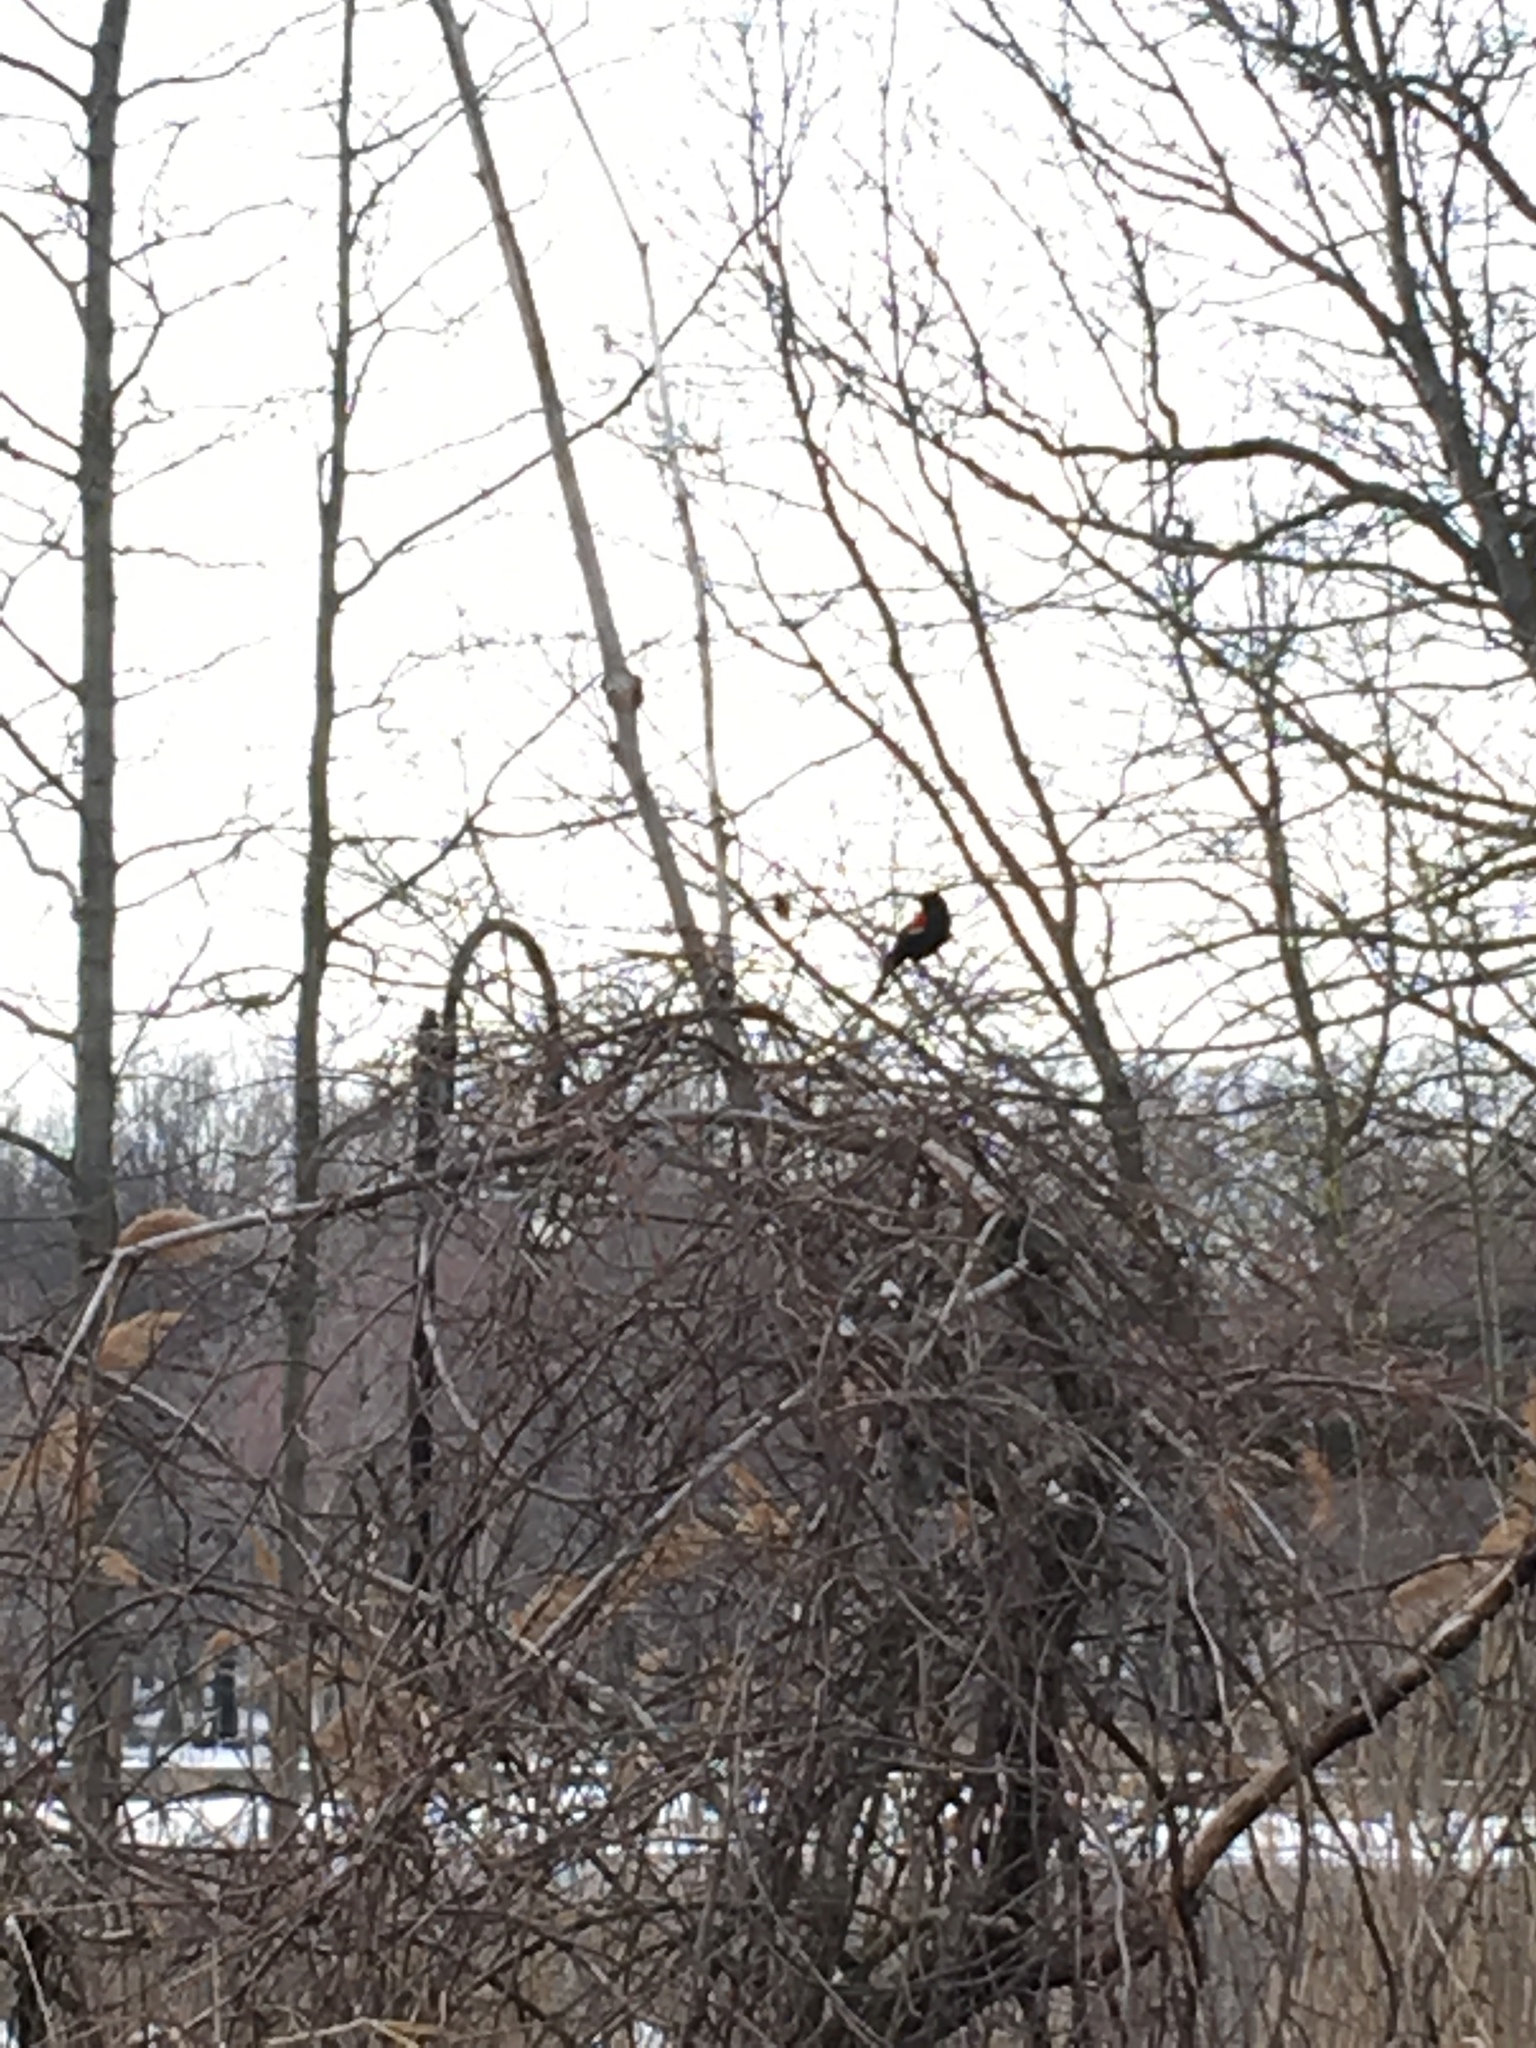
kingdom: Animalia
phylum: Chordata
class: Aves
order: Passeriformes
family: Icteridae
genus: Agelaius
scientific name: Agelaius phoeniceus
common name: Red-winged blackbird
